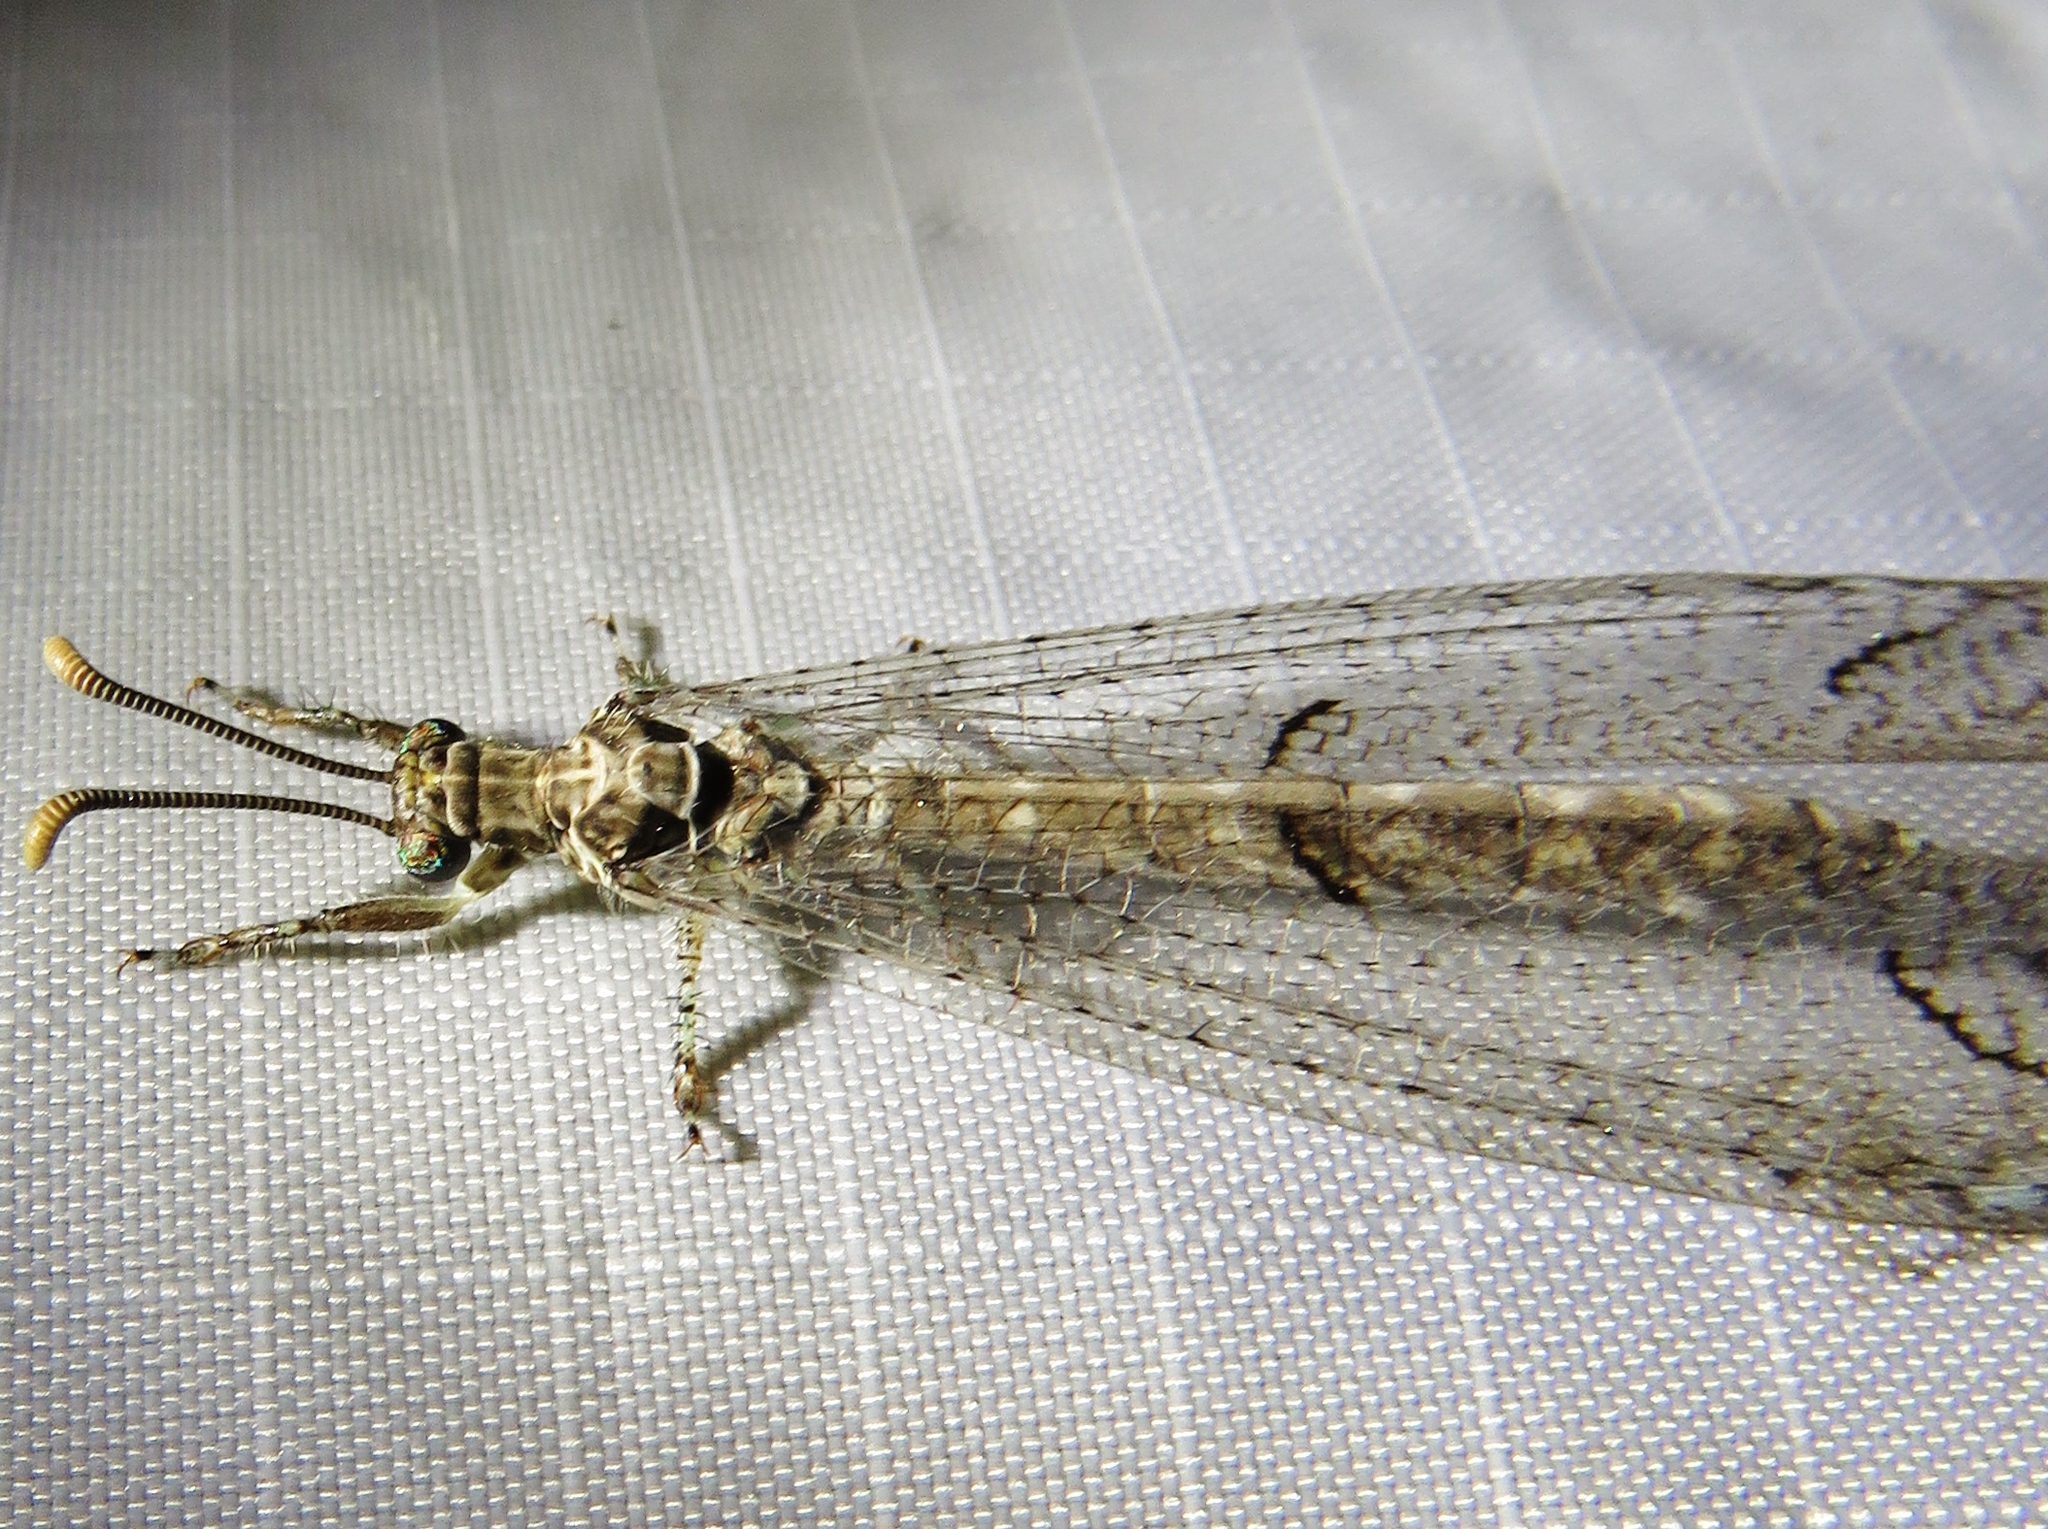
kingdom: Animalia
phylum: Arthropoda
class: Insecta
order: Neuroptera
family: Myrmeleontidae
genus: Euptilon
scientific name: Euptilon ornatum
